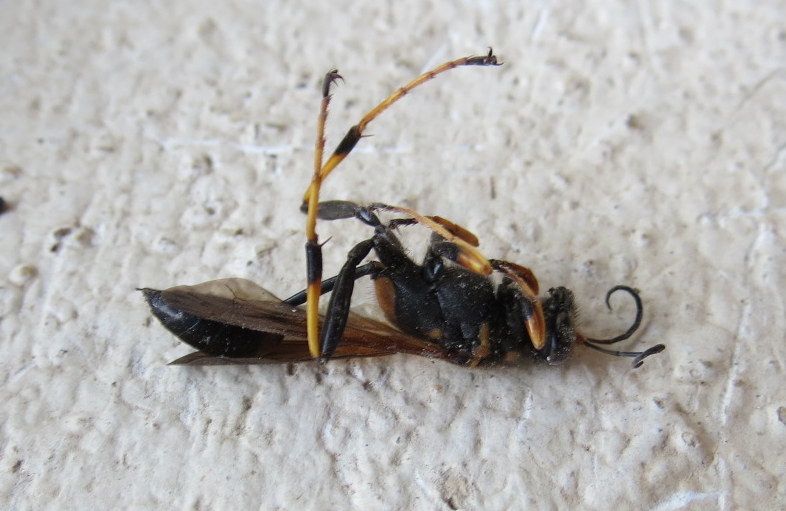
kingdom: Animalia
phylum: Arthropoda
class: Insecta
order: Hymenoptera
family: Sphecidae
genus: Sceliphron
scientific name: Sceliphron caementarium
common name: Mud dauber
